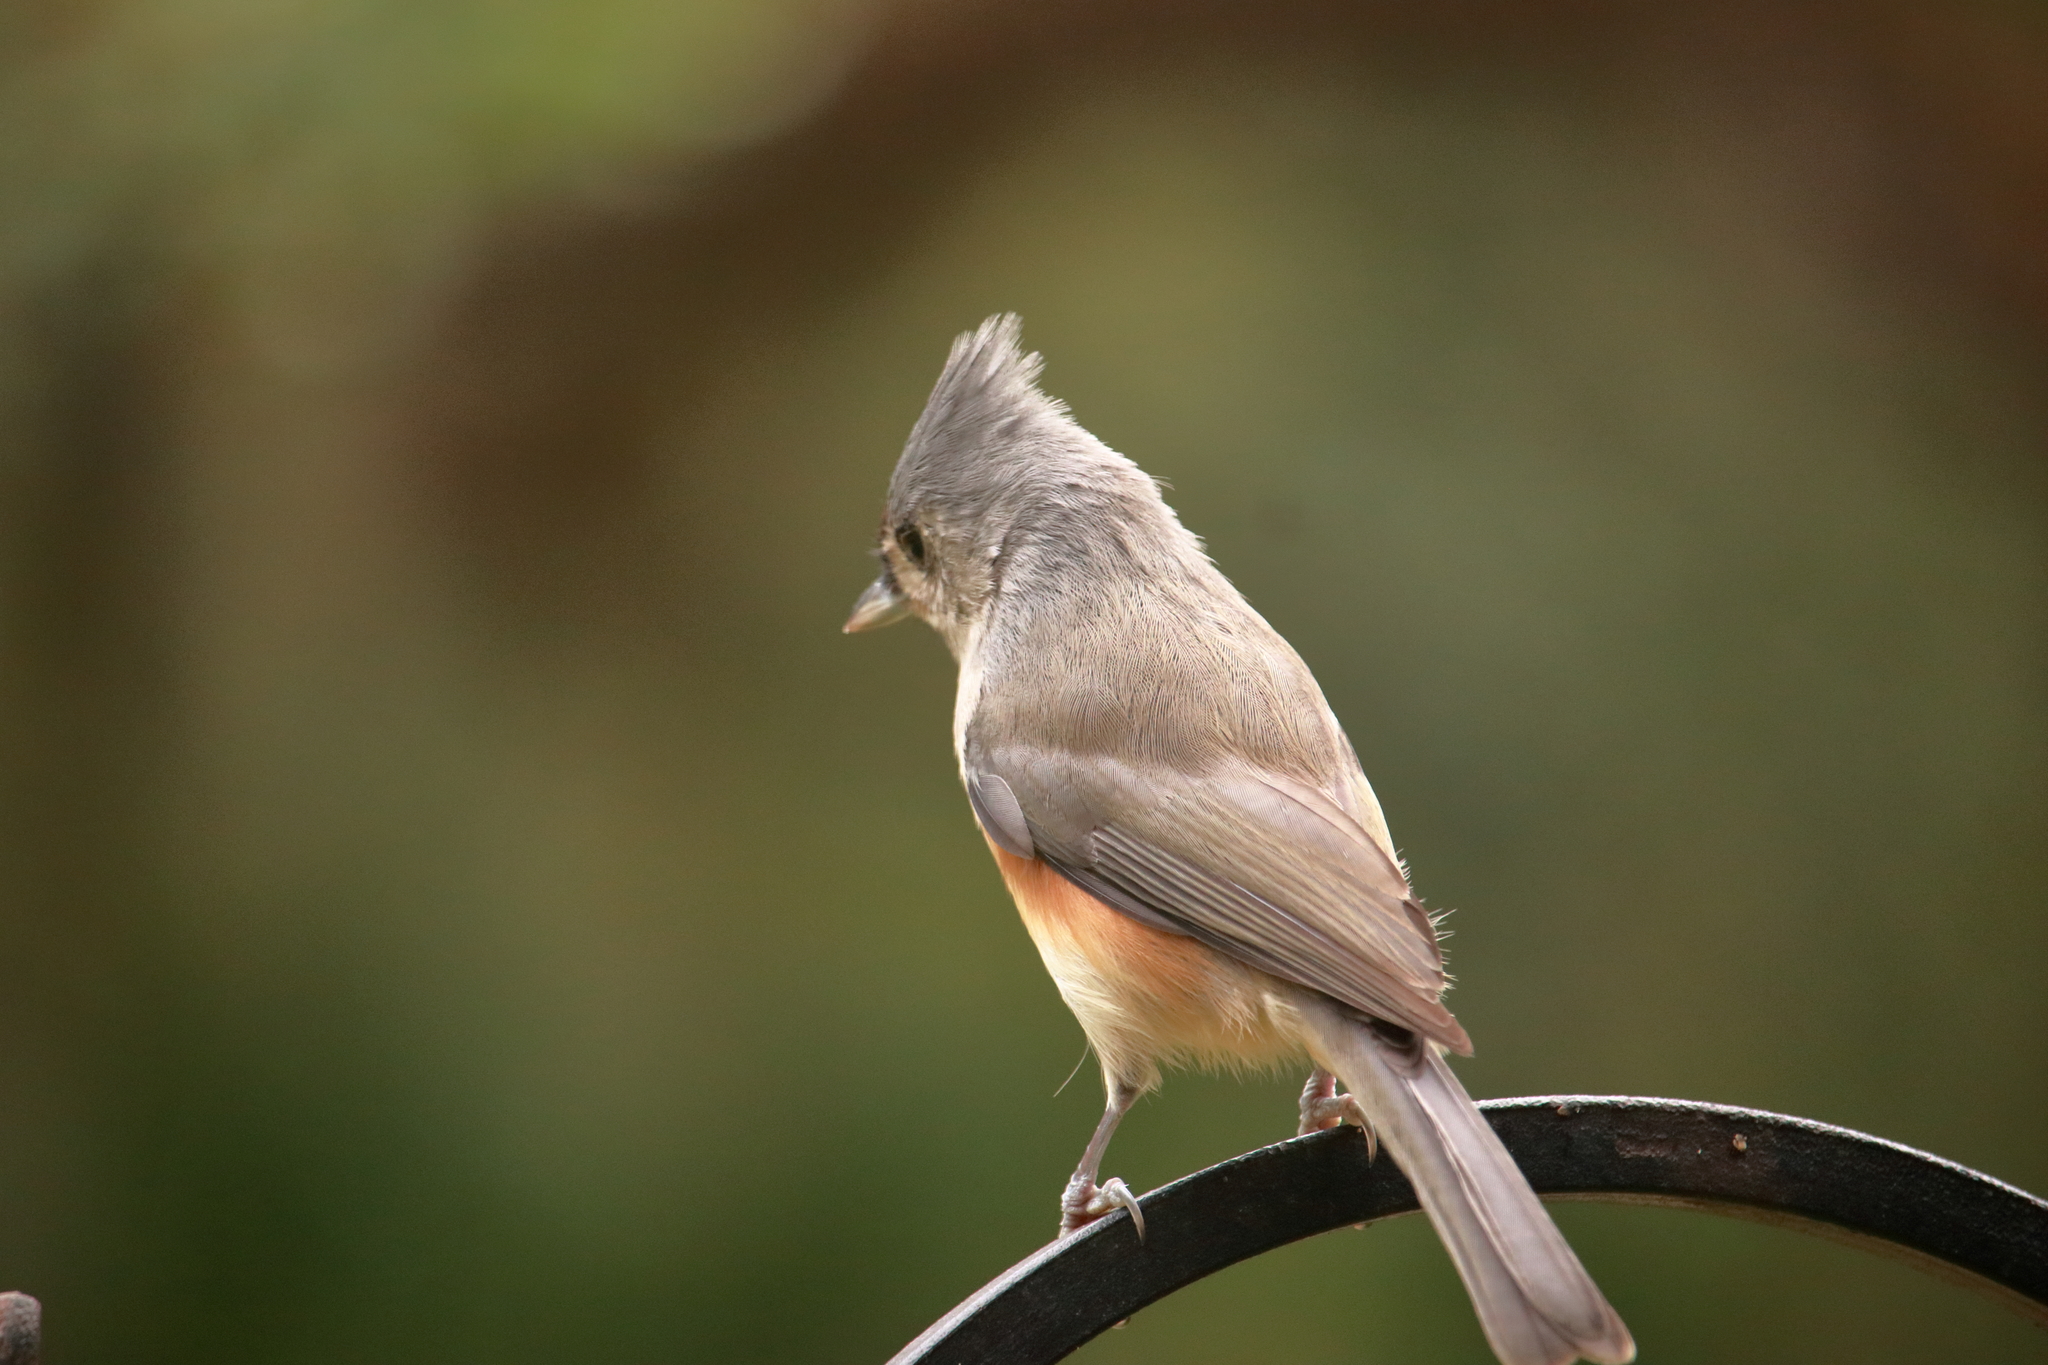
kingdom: Animalia
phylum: Chordata
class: Aves
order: Passeriformes
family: Paridae
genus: Baeolophus
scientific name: Baeolophus bicolor
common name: Tufted titmouse
